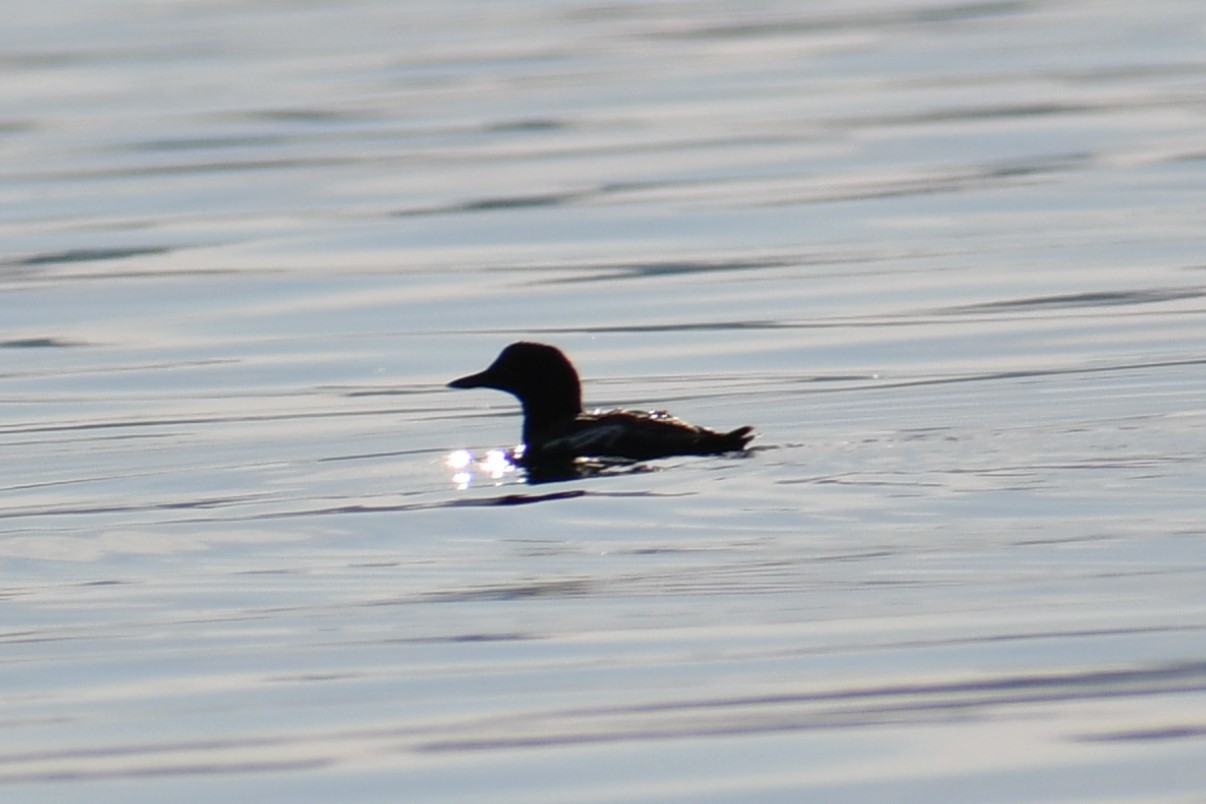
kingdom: Animalia
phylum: Chordata
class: Aves
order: Charadriiformes
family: Alcidae
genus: Cepphus
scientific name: Cepphus columba
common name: Pigeon guillemot
